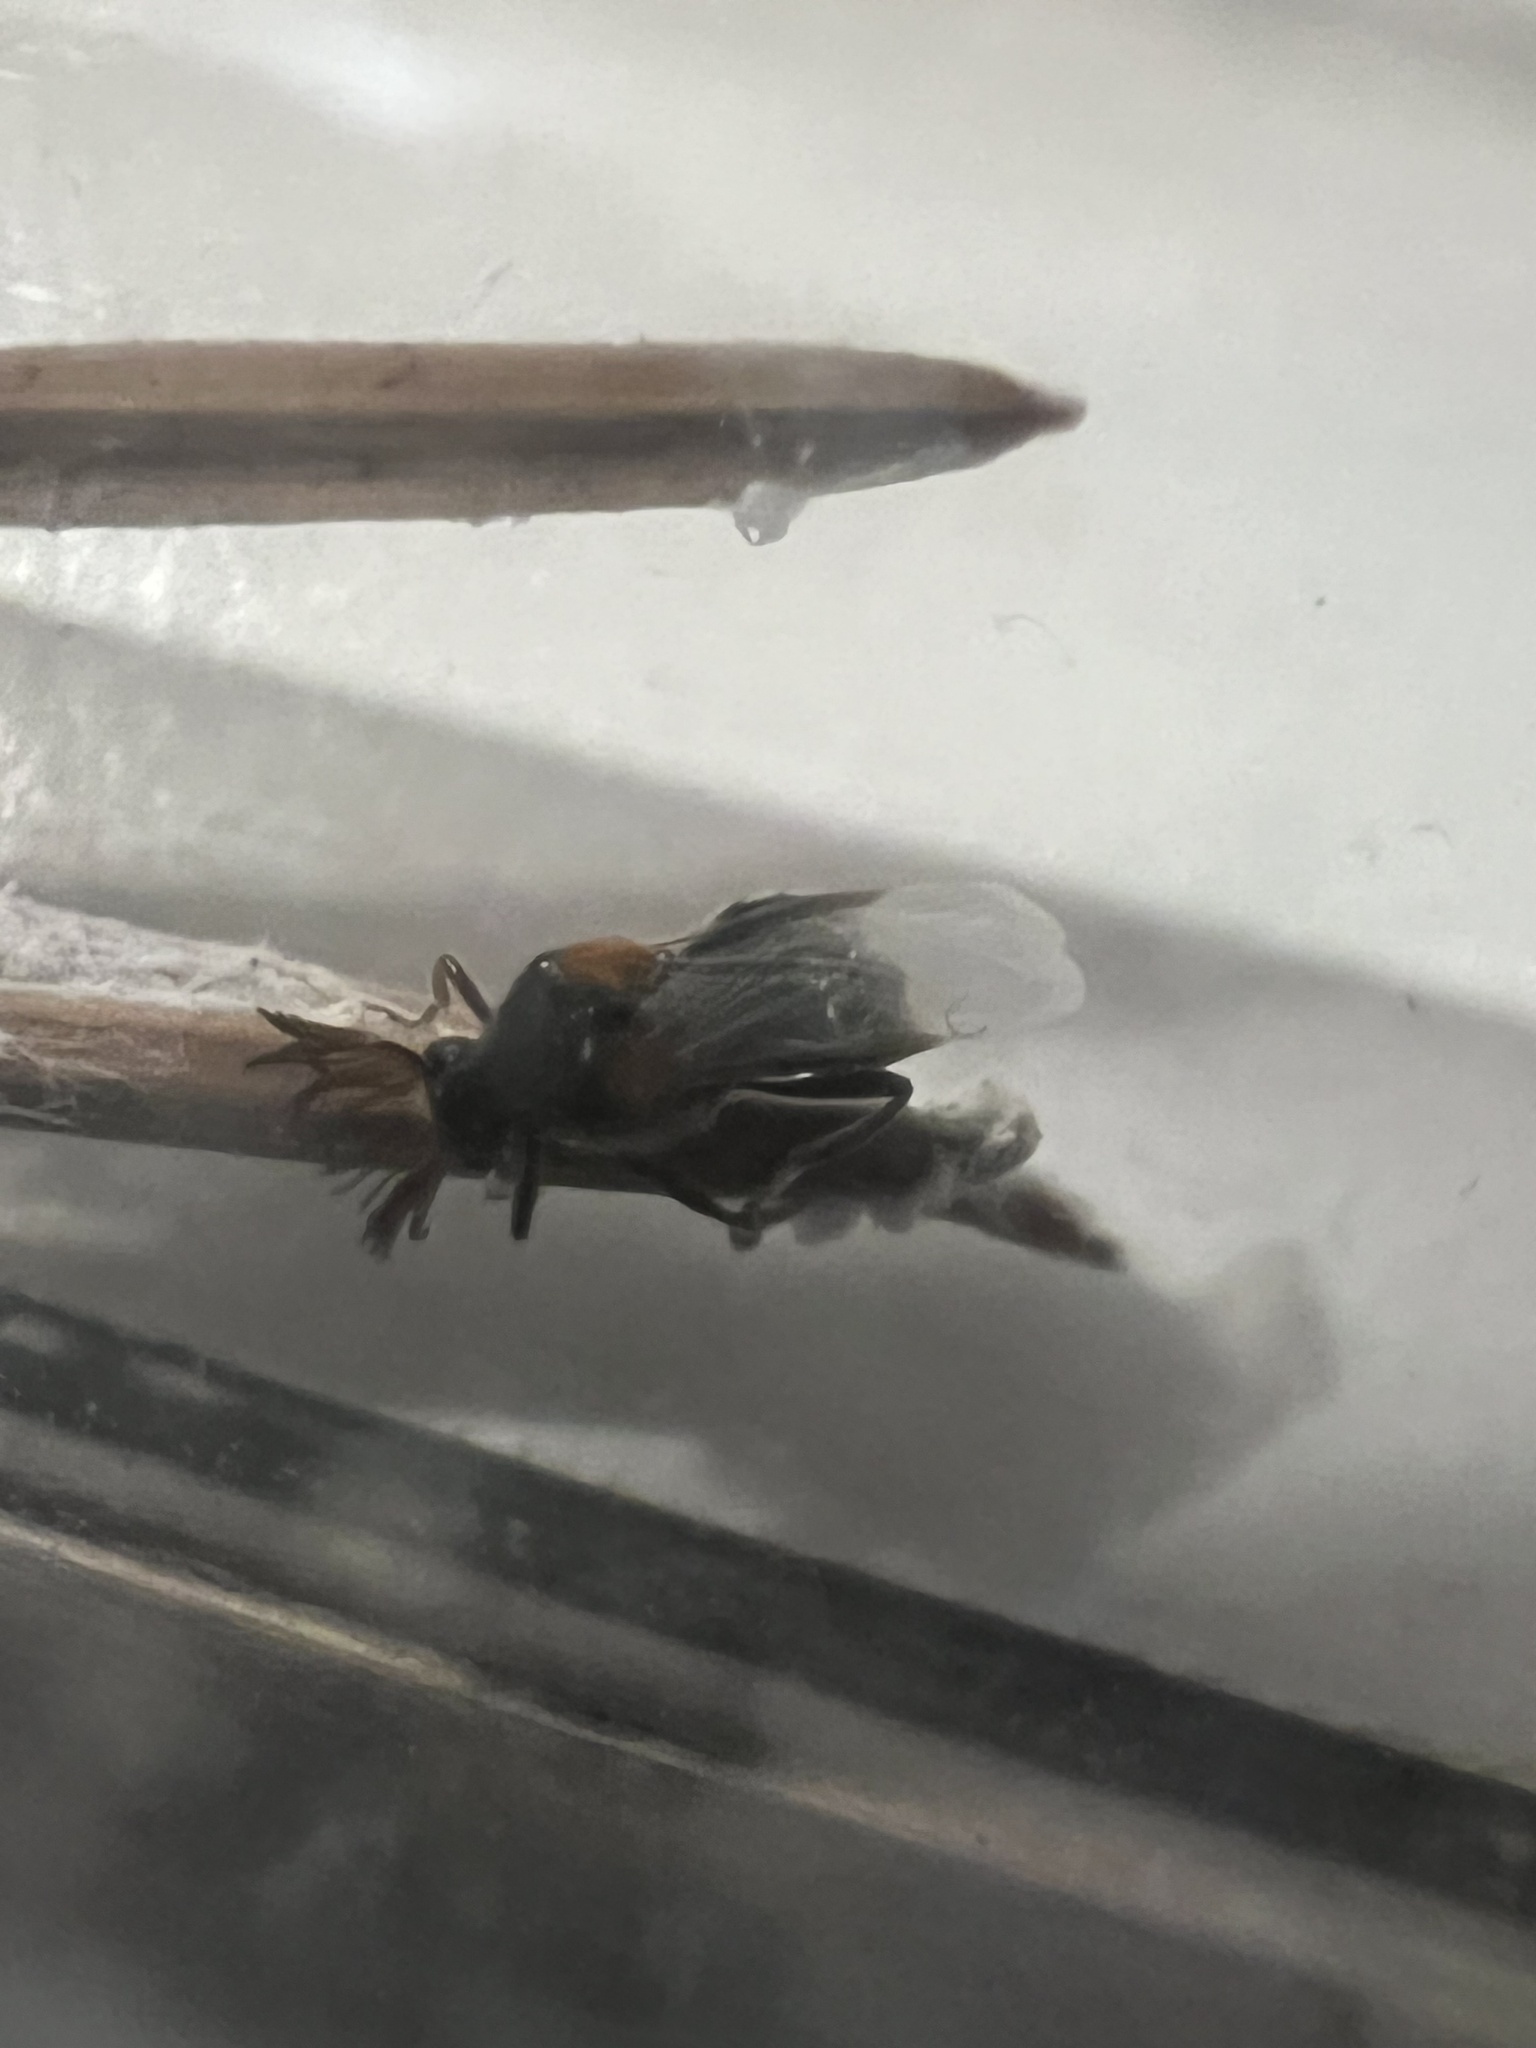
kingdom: Animalia
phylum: Arthropoda
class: Insecta
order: Coleoptera
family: Ripiphoridae
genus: Ripiphorus
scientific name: Ripiphorus iridescens
